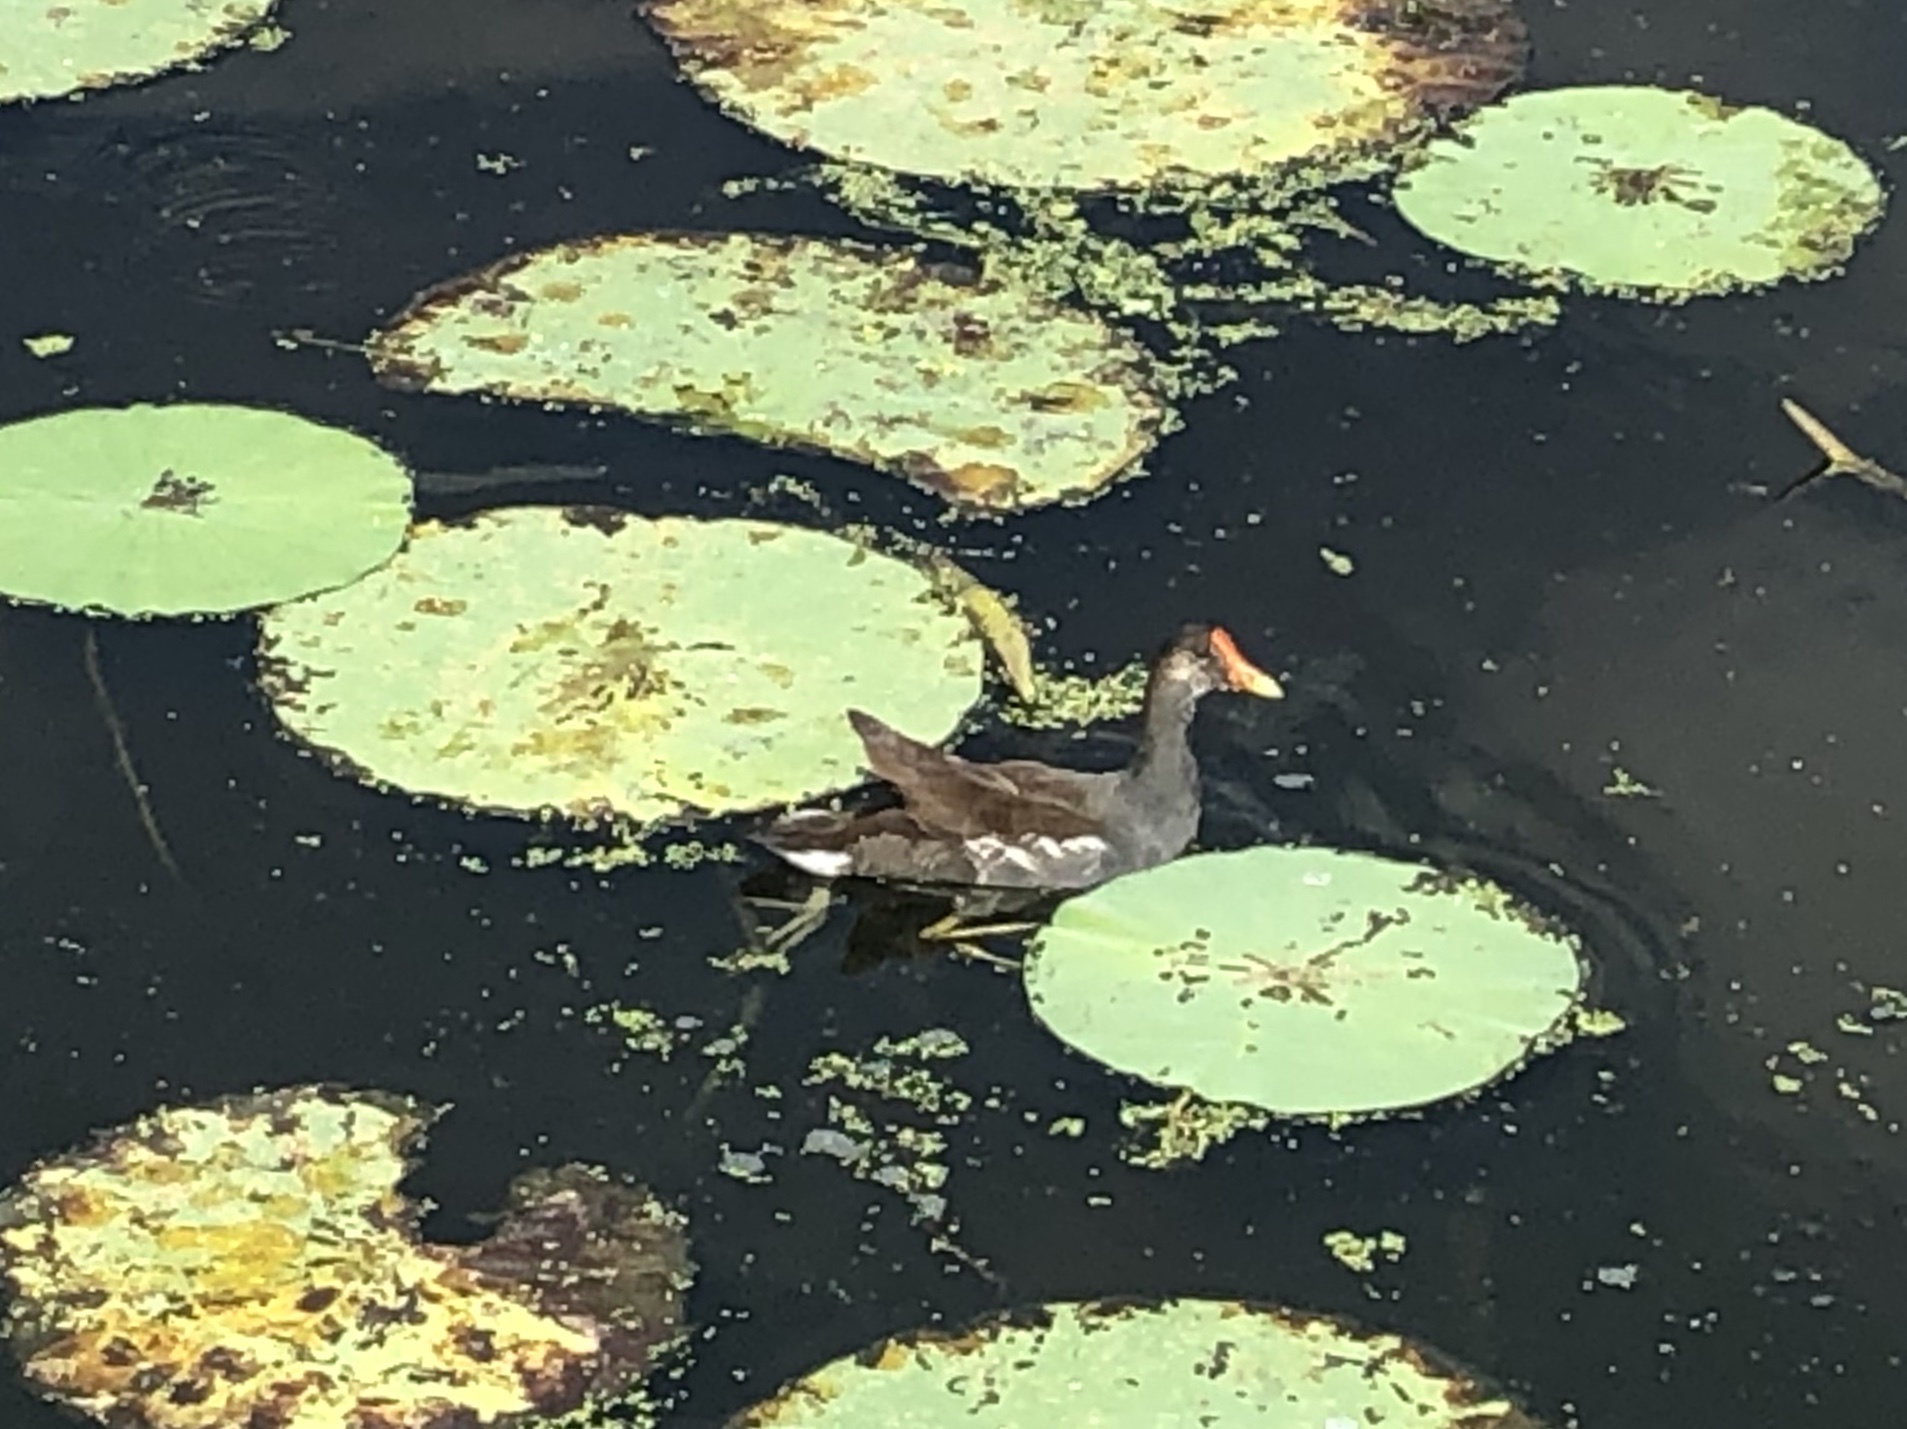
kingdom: Animalia
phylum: Chordata
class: Aves
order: Gruiformes
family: Rallidae
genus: Gallinula
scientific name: Gallinula chloropus
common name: Common moorhen
